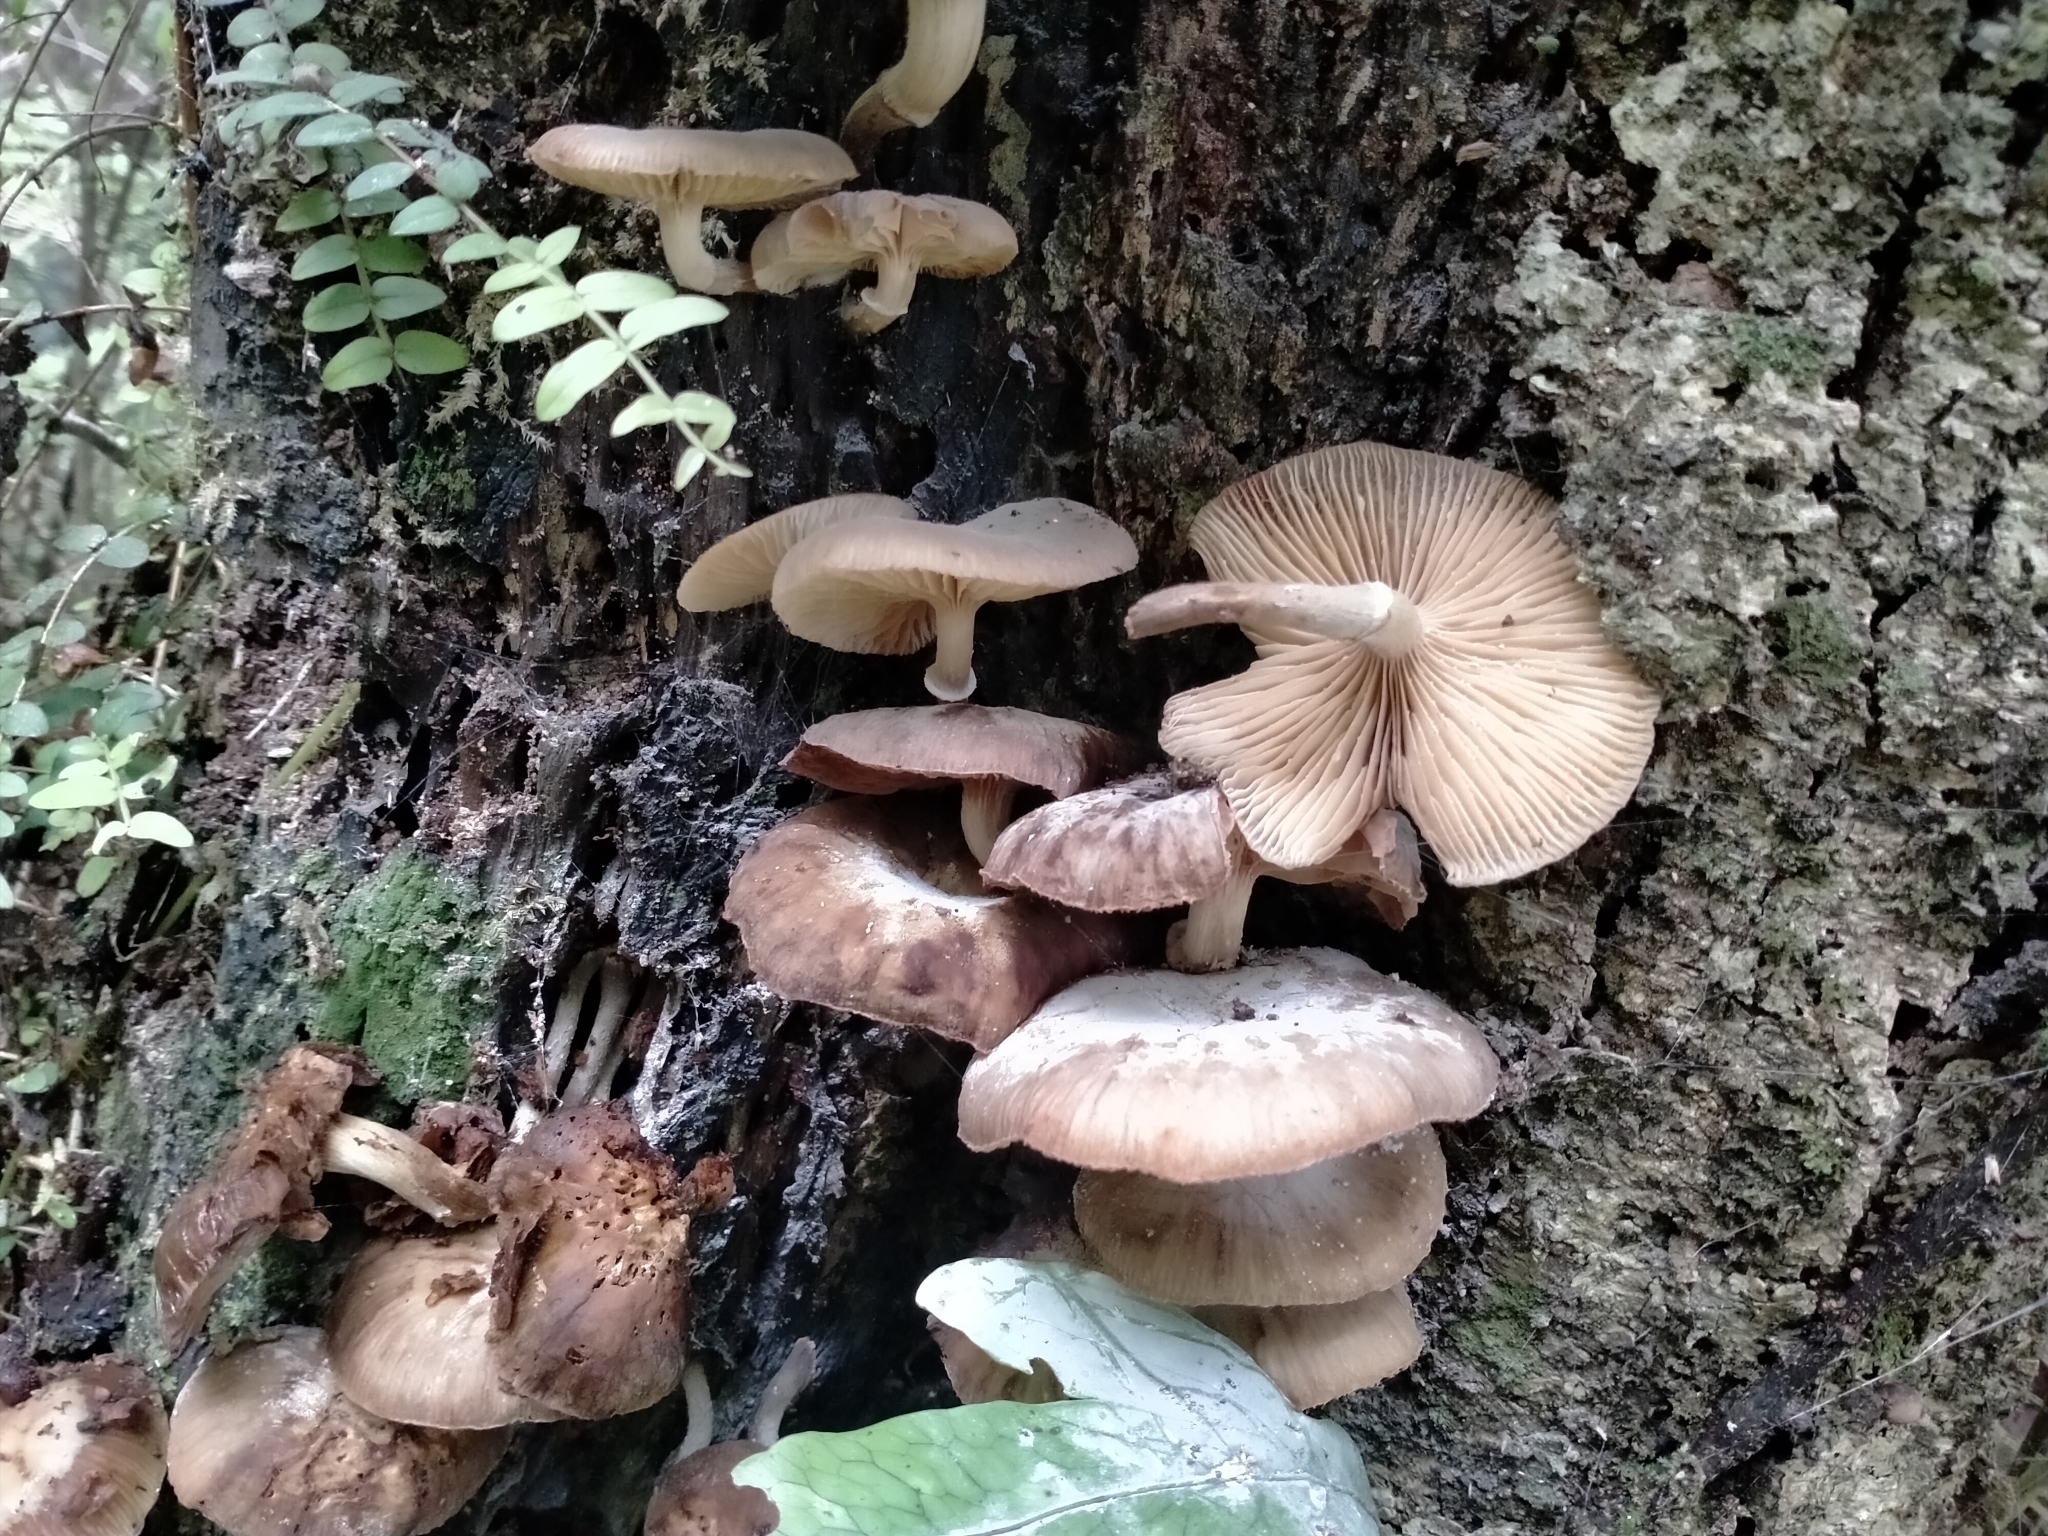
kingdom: Fungi
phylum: Basidiomycota
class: Agaricomycetes
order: Agaricales
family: Physalacriaceae
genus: Armillaria
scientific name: Armillaria novae-zelandiae
